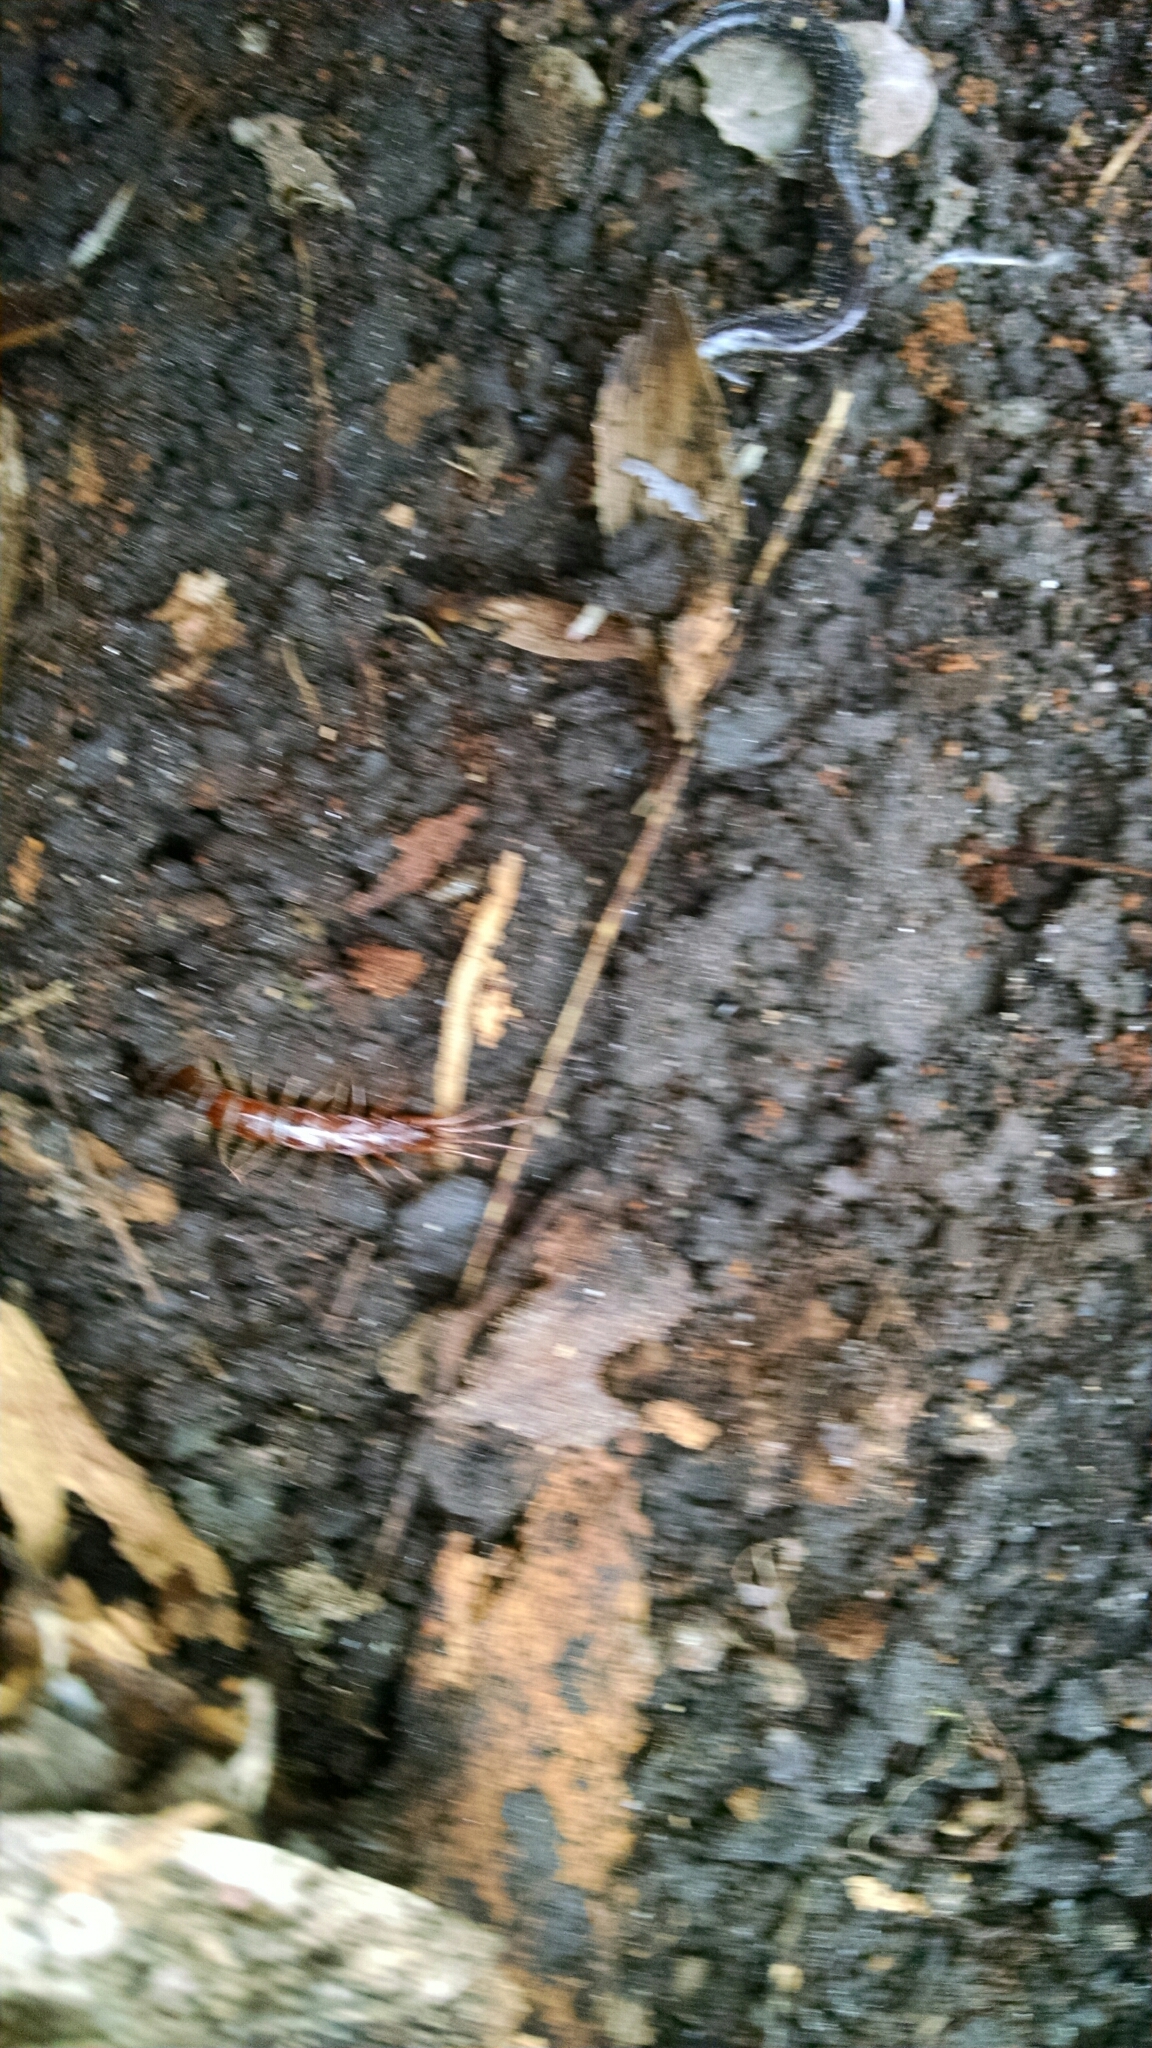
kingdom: Animalia
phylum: Chordata
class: Amphibia
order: Caudata
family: Plethodontidae
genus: Plethodon
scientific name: Plethodon cinereus
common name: Redback salamander
